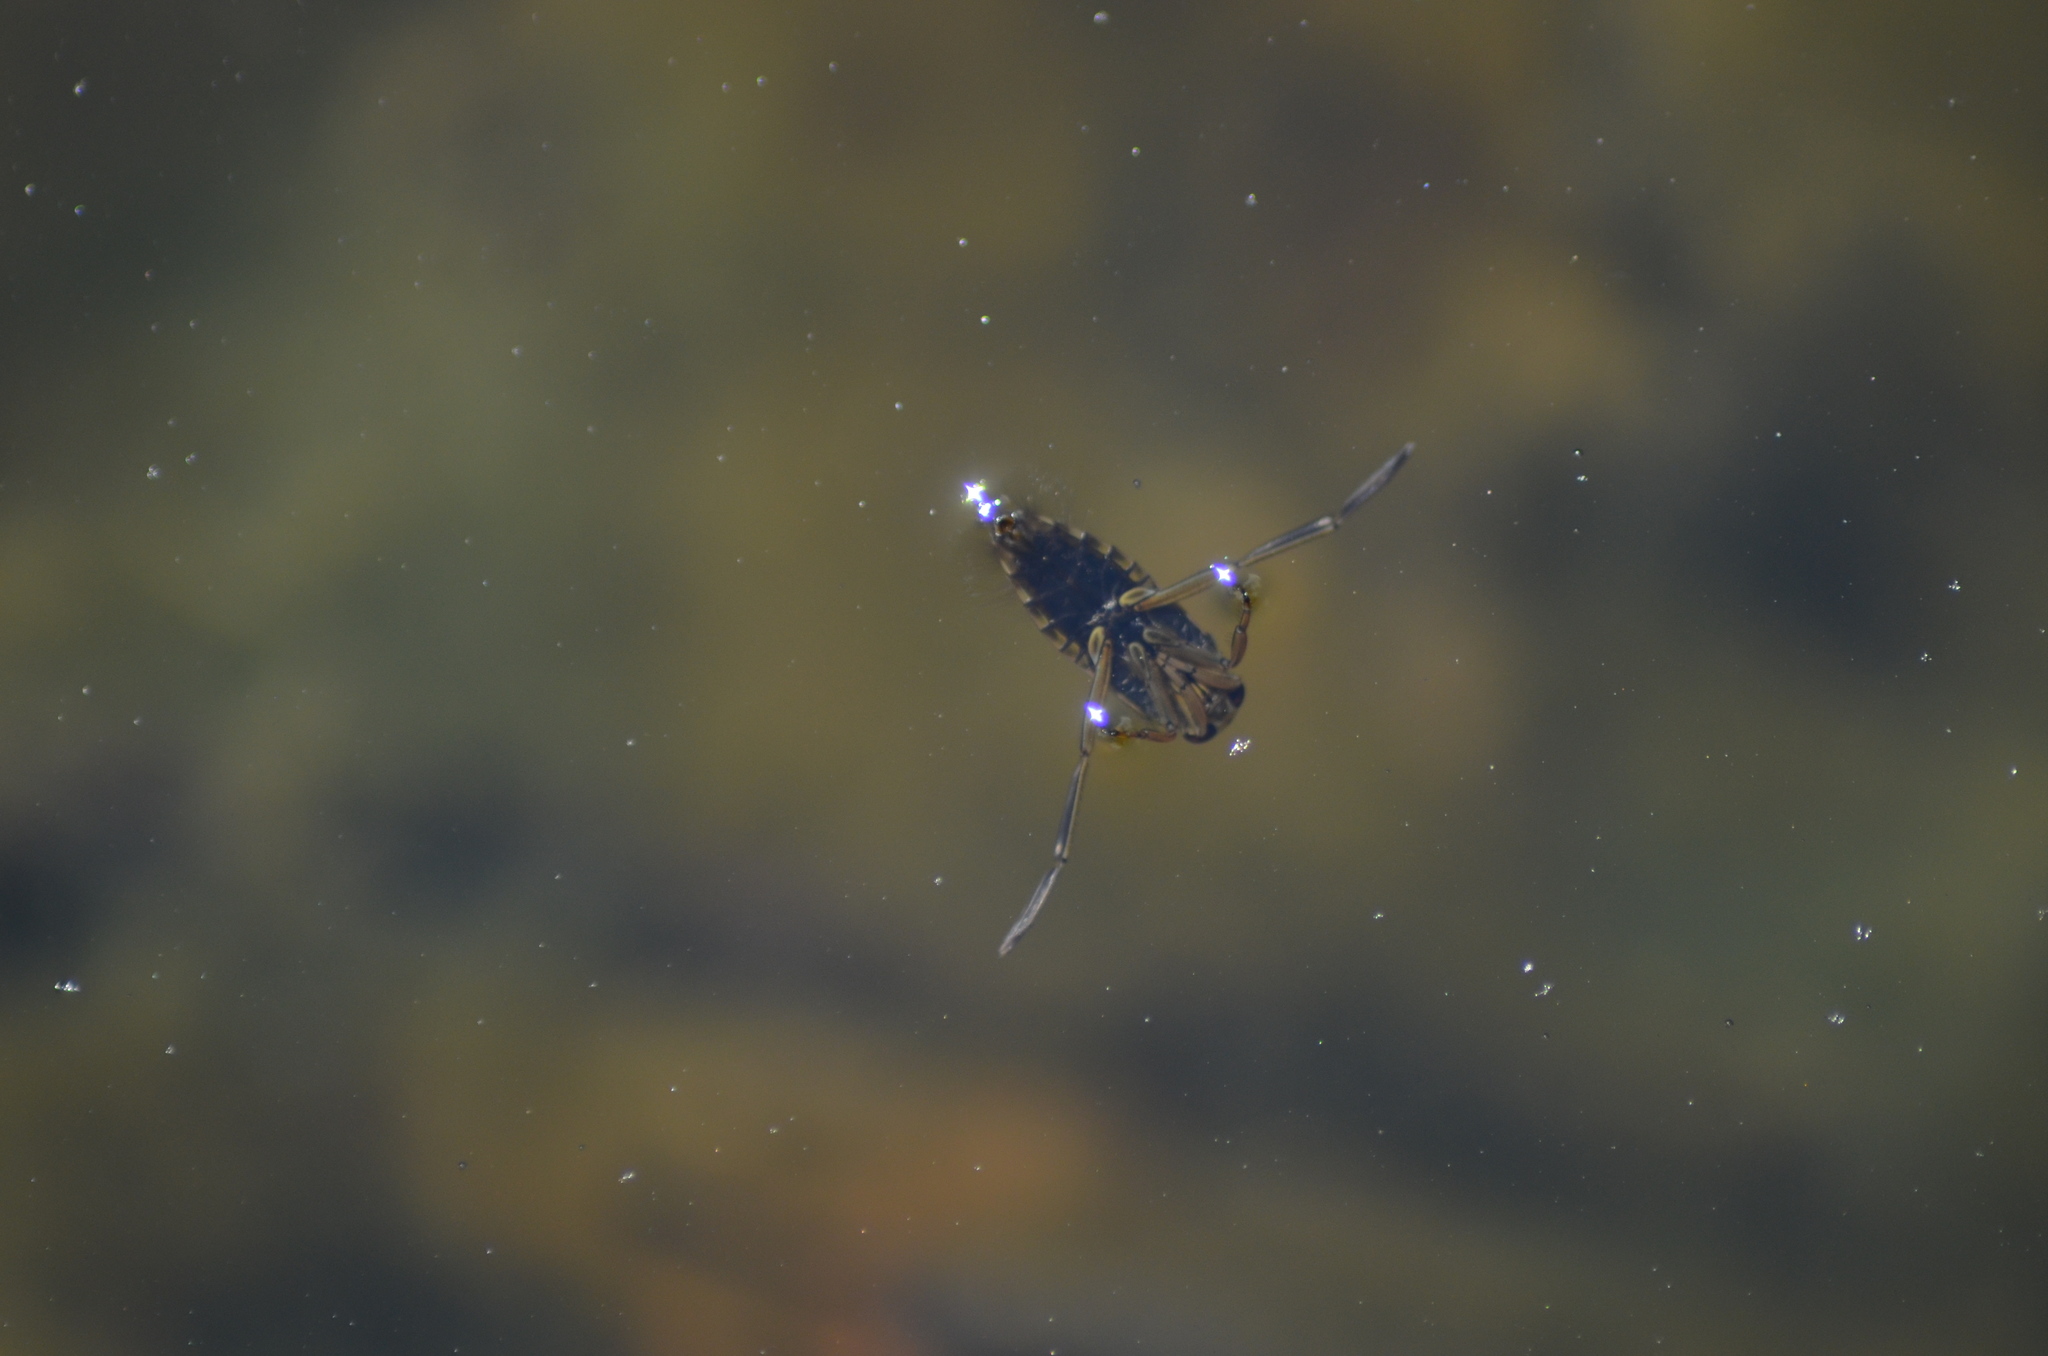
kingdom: Animalia
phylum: Arthropoda
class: Insecta
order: Hemiptera
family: Notonectidae
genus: Notonecta
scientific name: Notonecta
